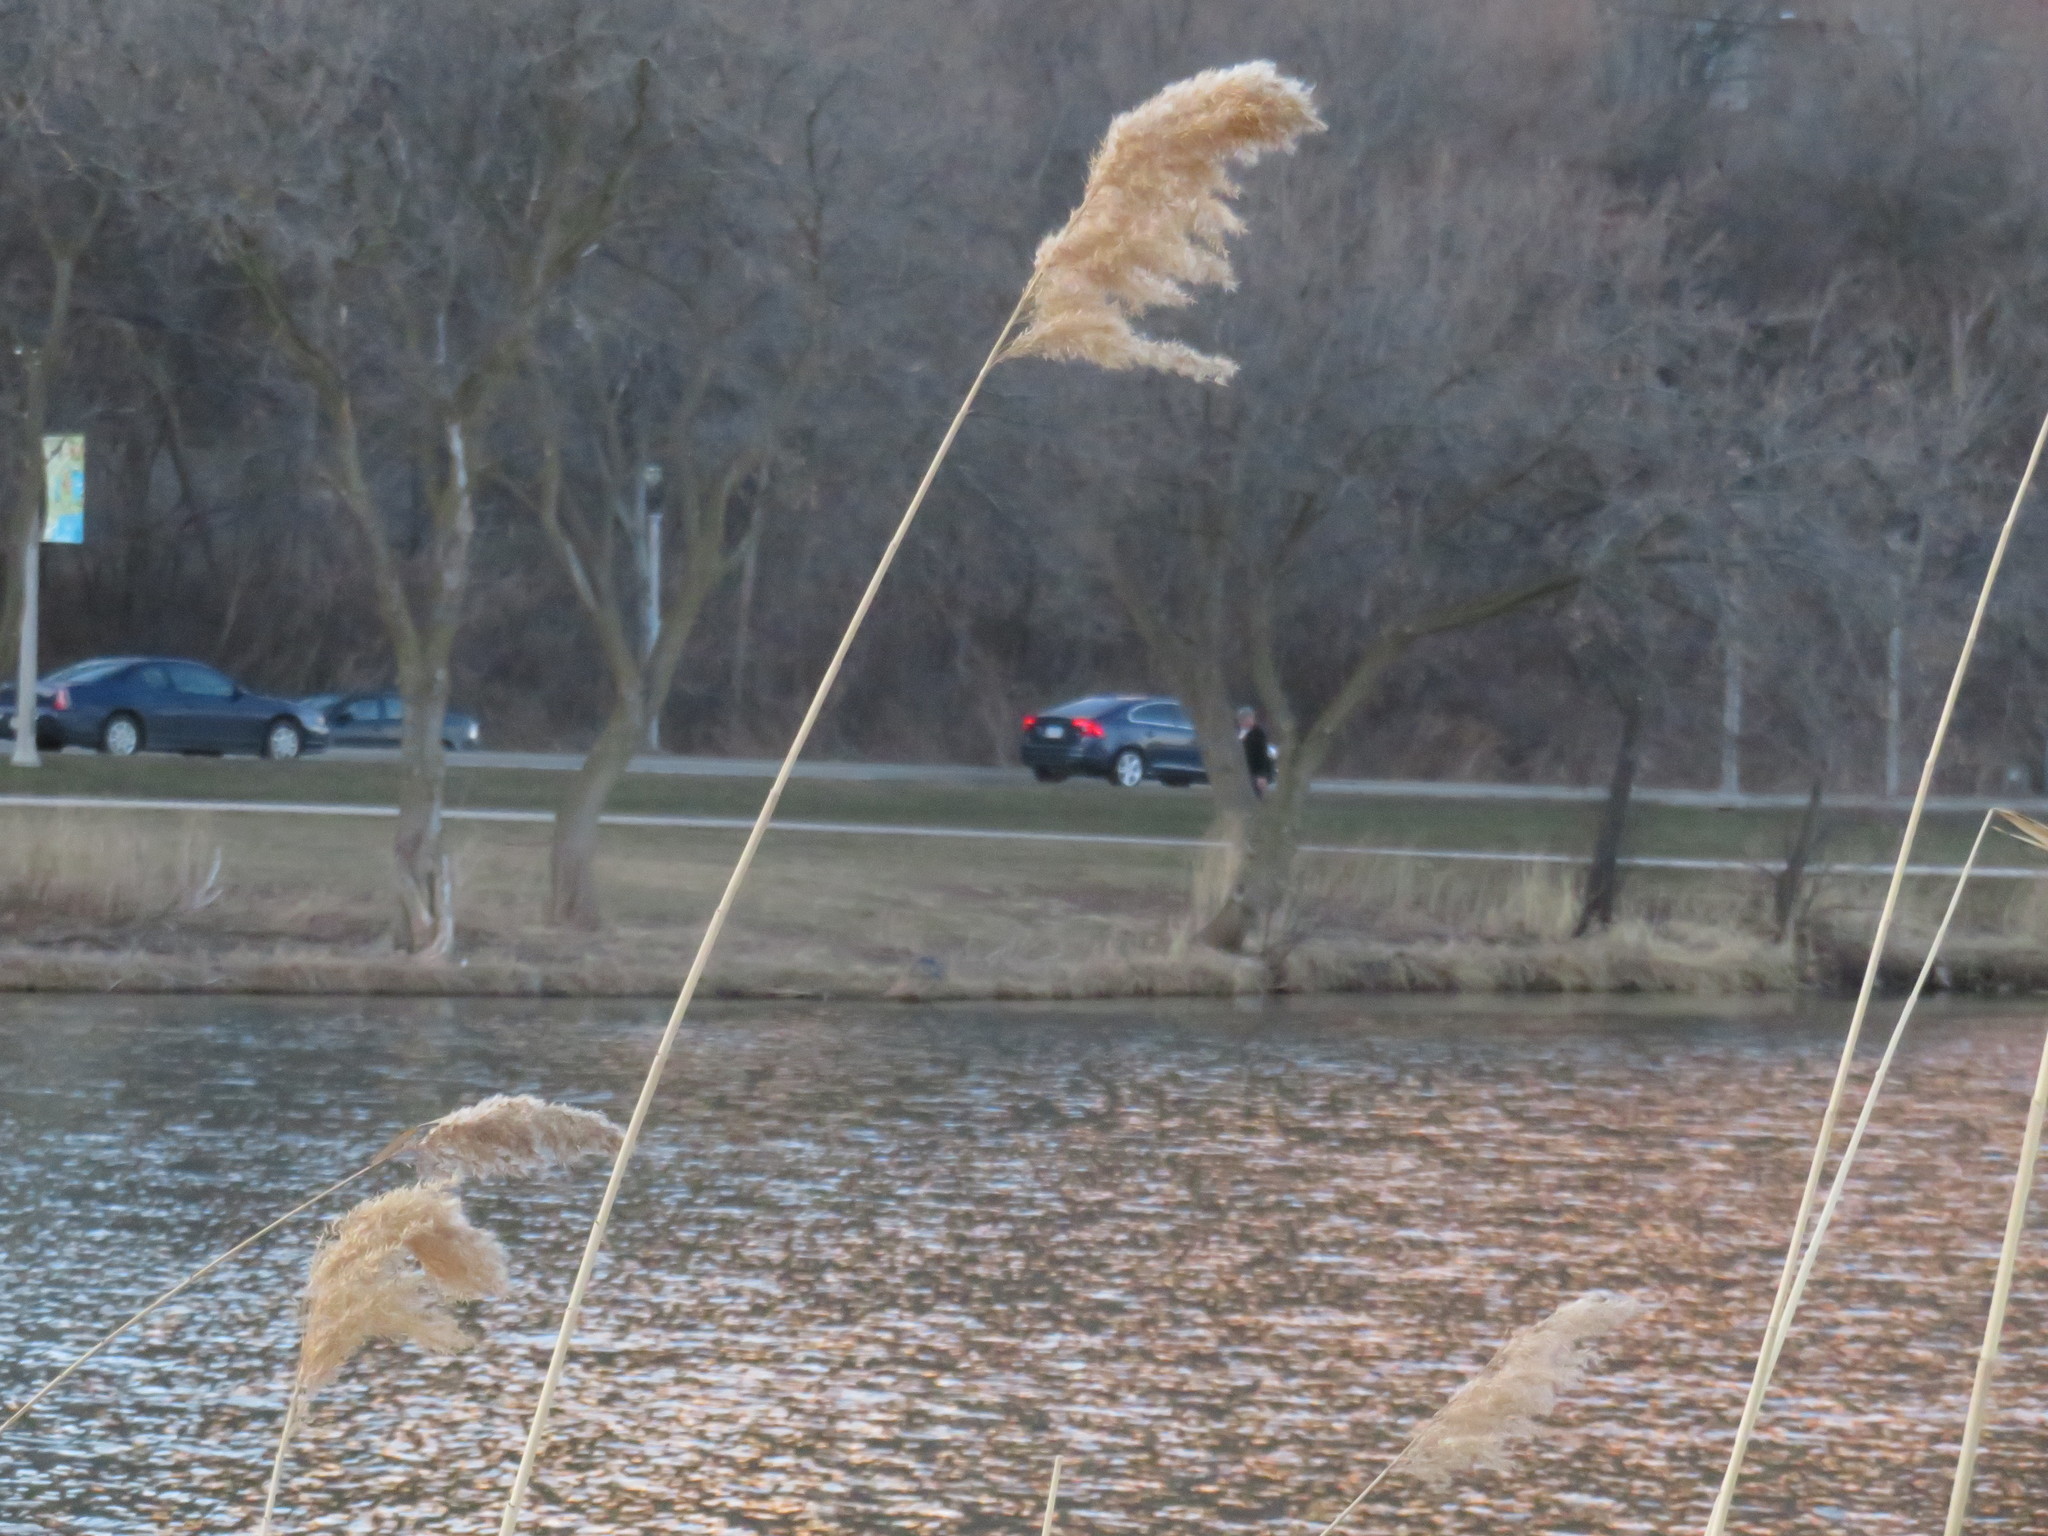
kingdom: Plantae
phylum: Tracheophyta
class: Liliopsida
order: Poales
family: Poaceae
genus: Phragmites
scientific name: Phragmites australis
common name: Common reed
